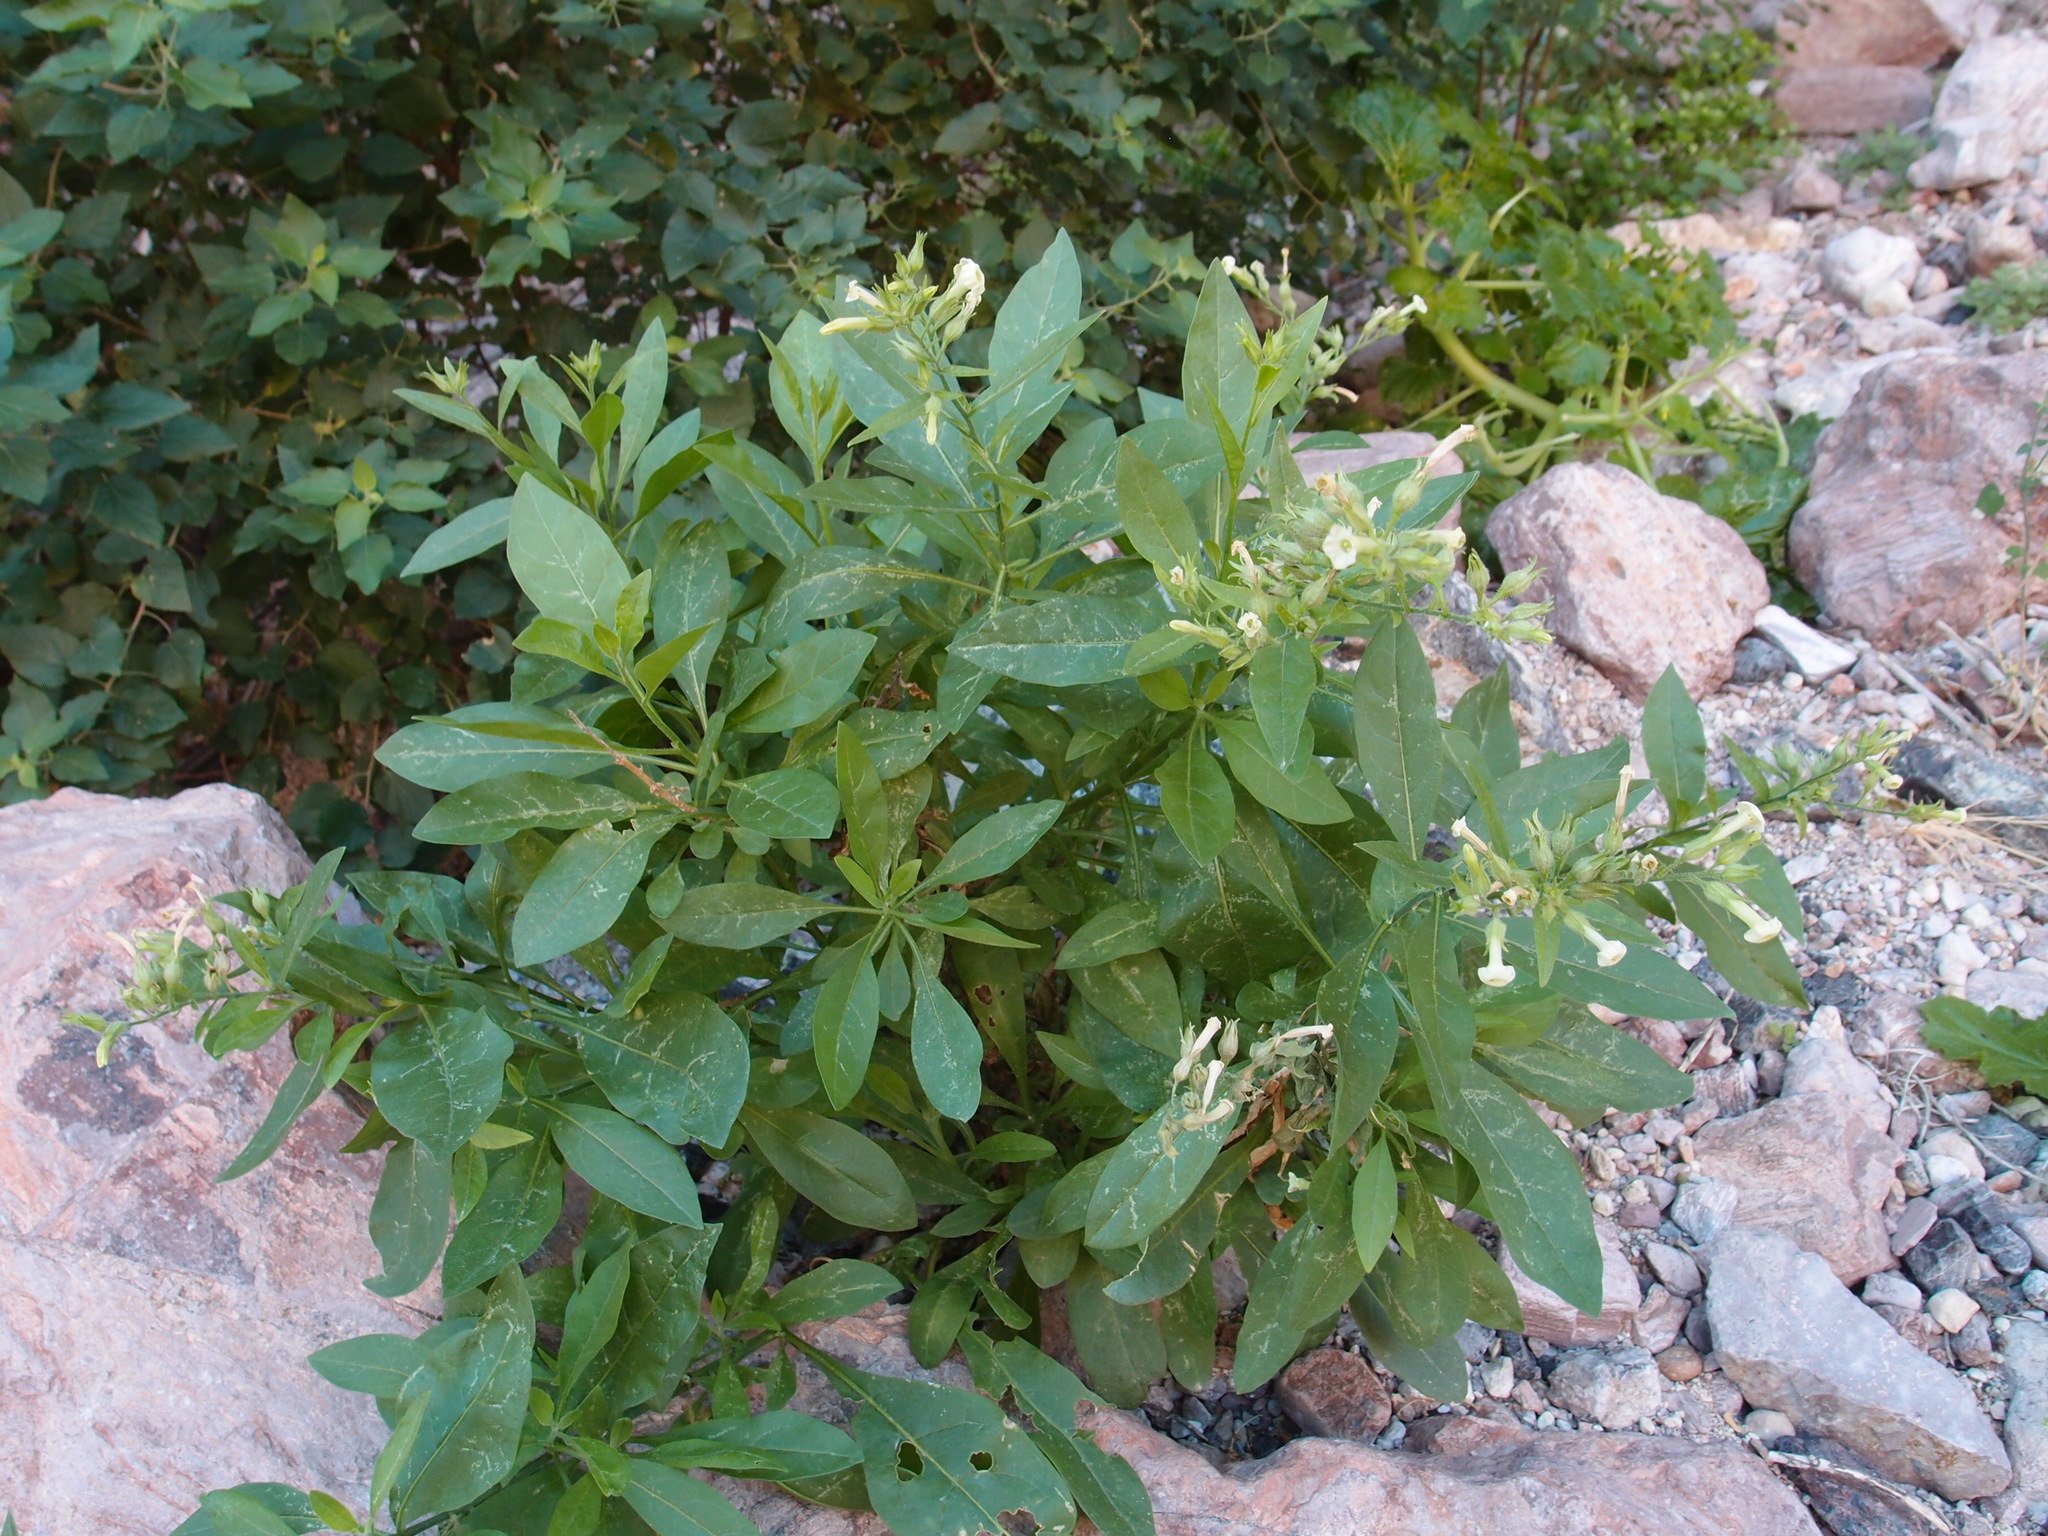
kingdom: Plantae
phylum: Tracheophyta
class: Magnoliopsida
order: Solanales
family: Solanaceae
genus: Nicotiana
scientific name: Nicotiana obtusifolia
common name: Desert tobacco
